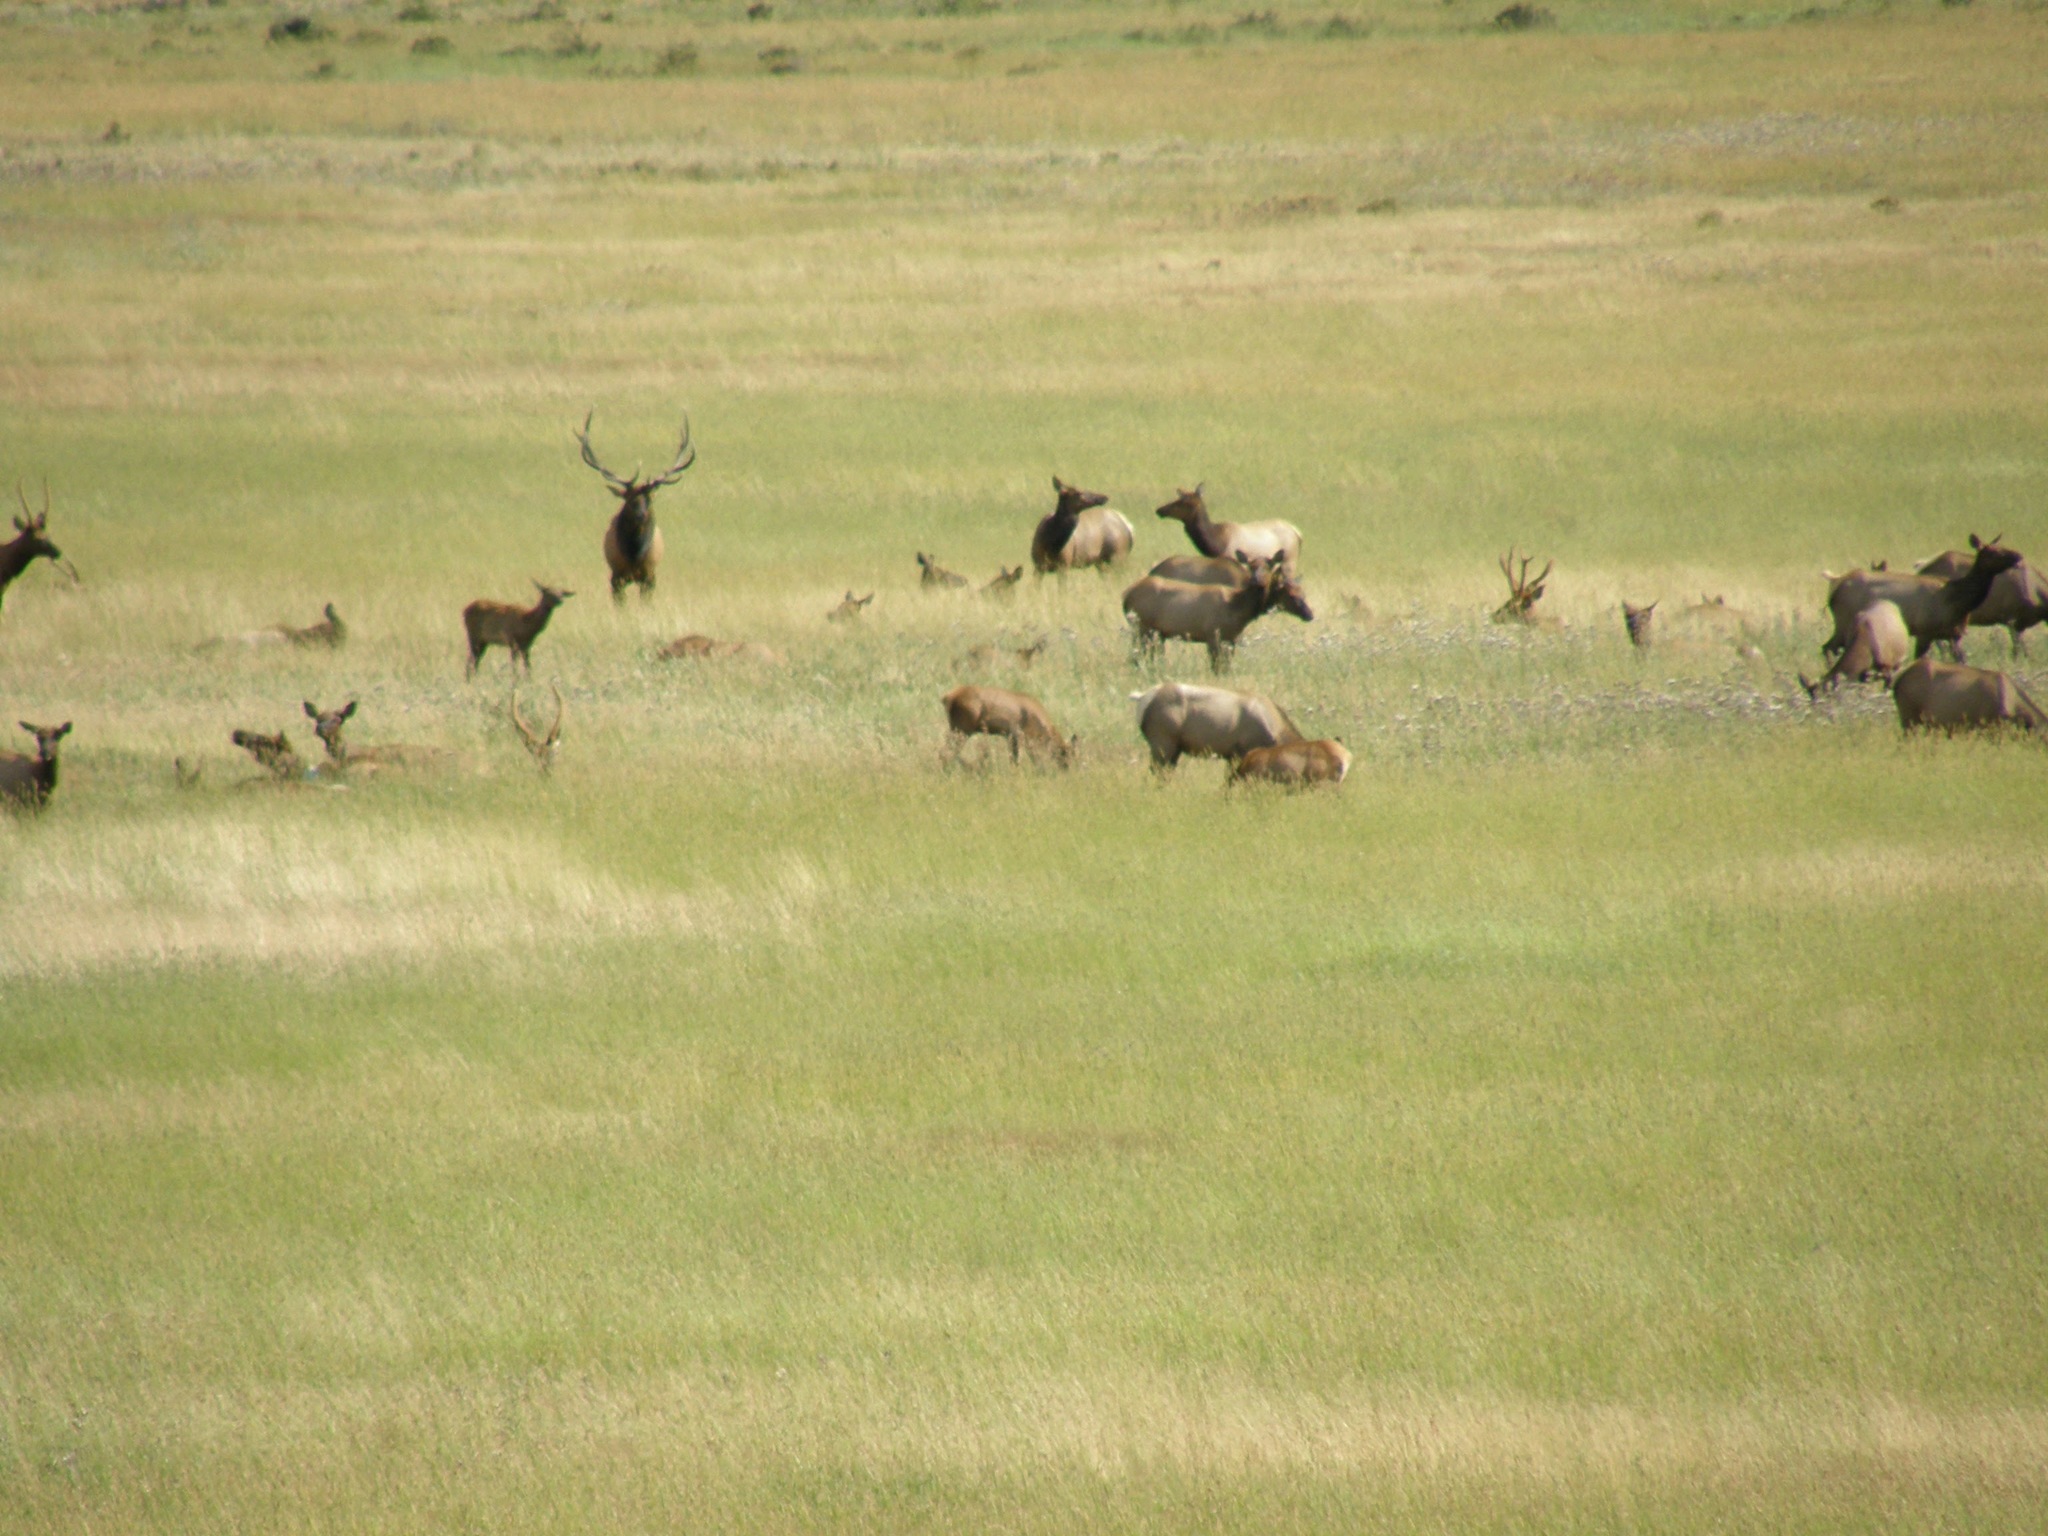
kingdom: Animalia
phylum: Chordata
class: Mammalia
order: Artiodactyla
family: Cervidae
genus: Cervus
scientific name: Cervus elaphus
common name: Red deer
